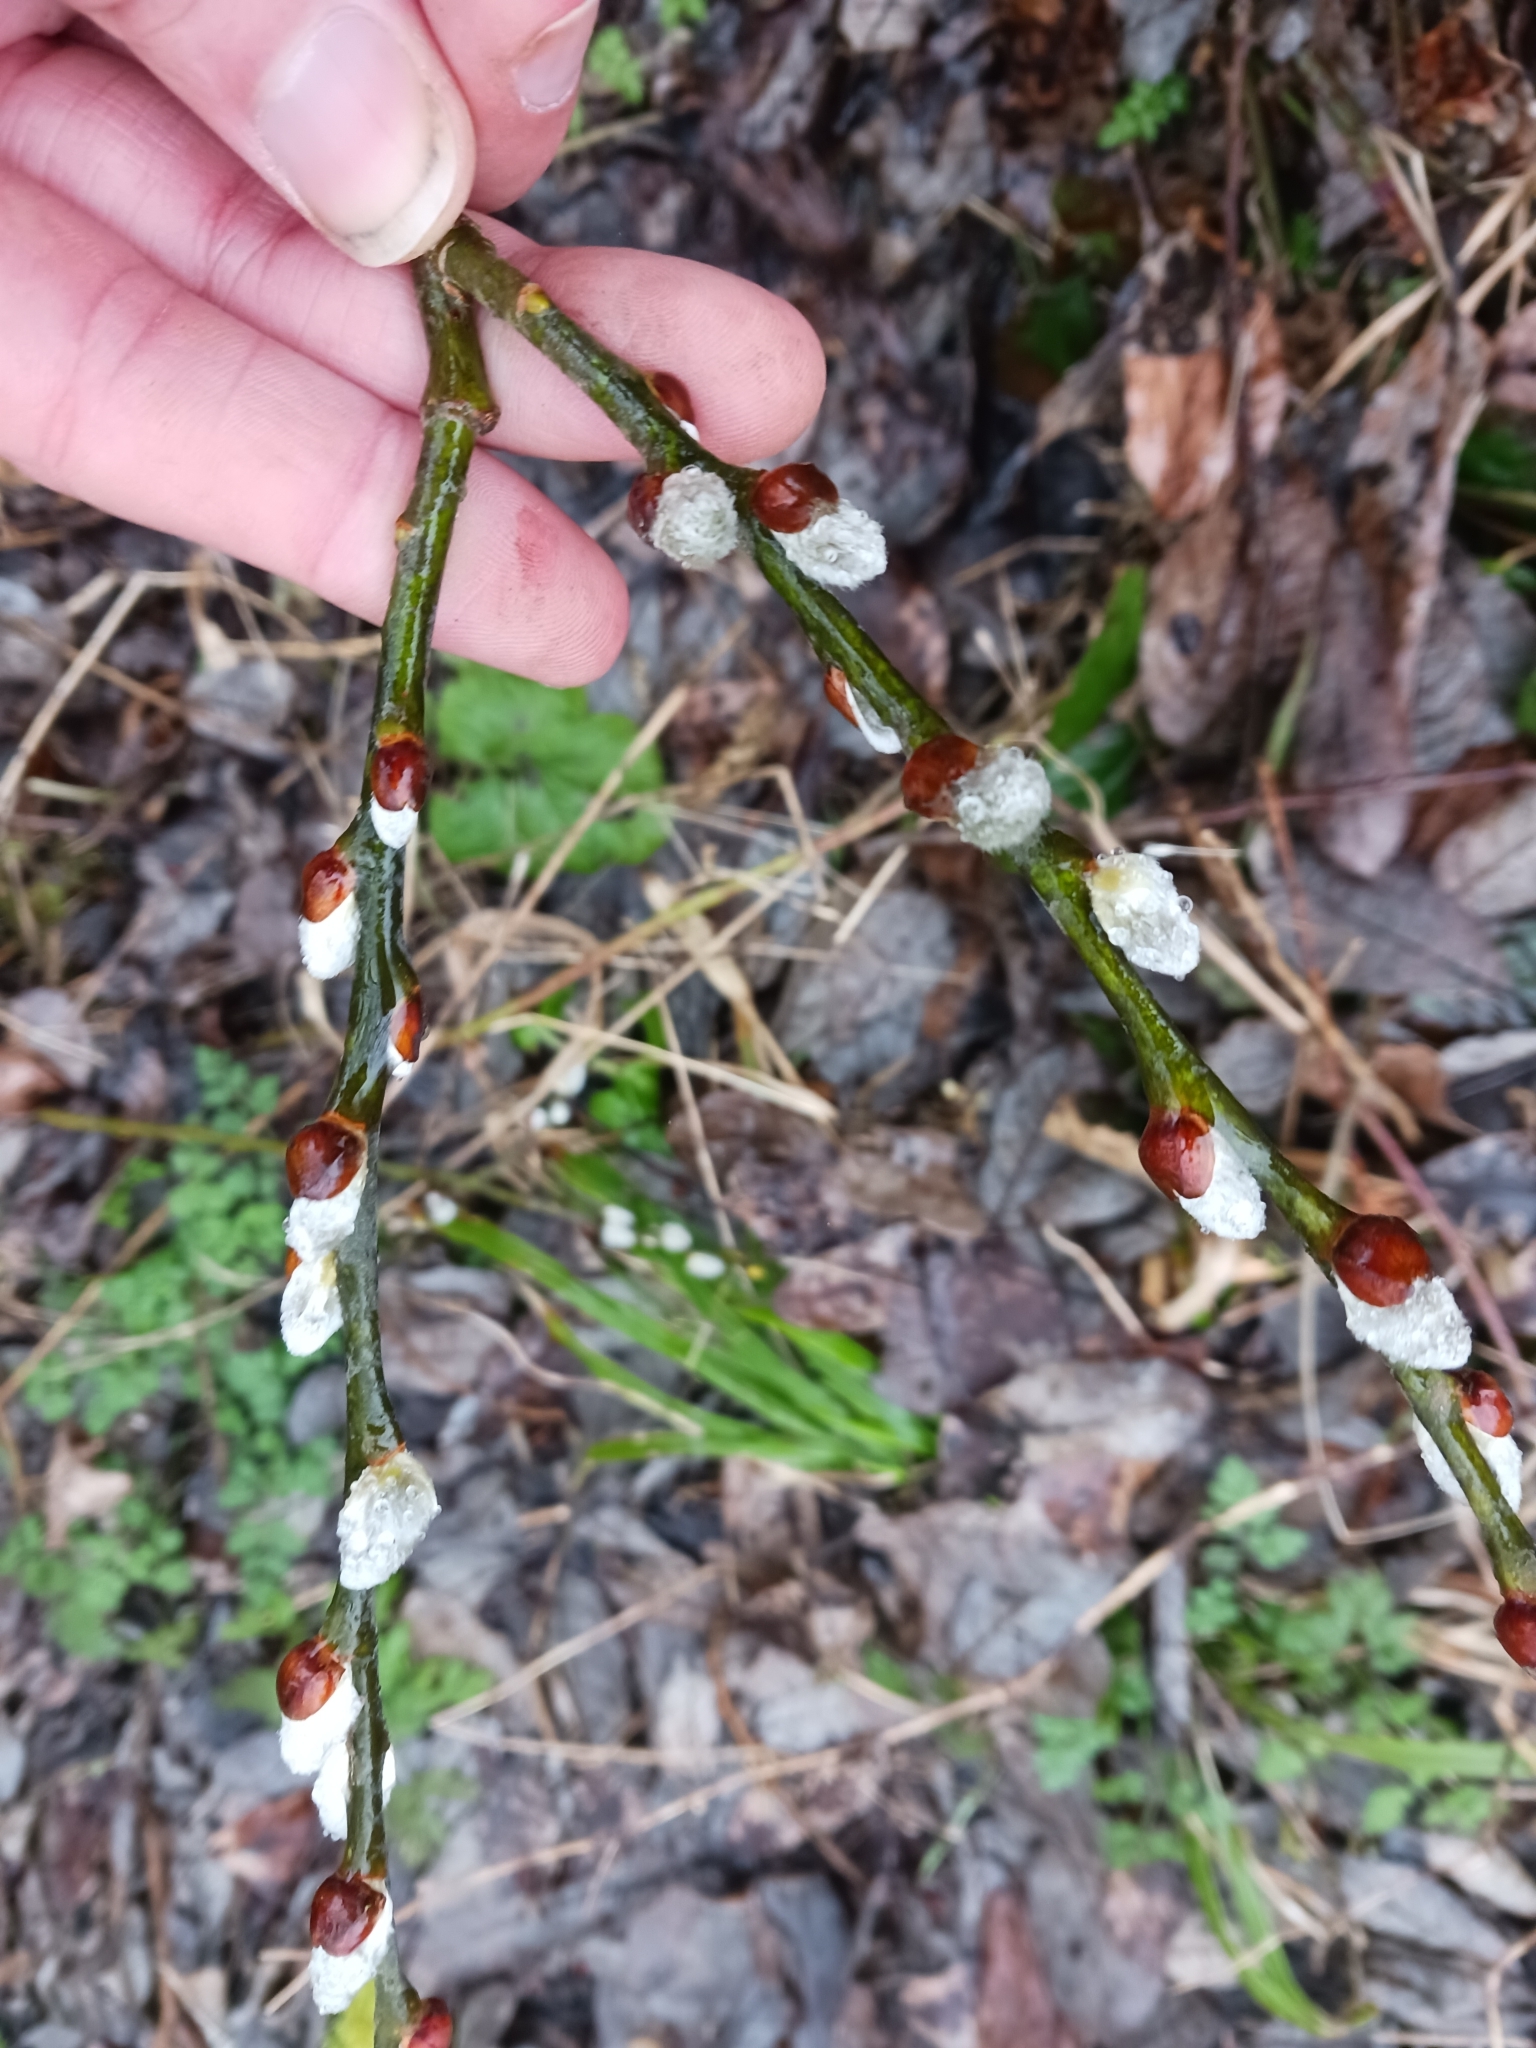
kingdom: Plantae
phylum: Tracheophyta
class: Magnoliopsida
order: Malpighiales
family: Salicaceae
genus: Salix
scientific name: Salix caprea
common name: Goat willow
